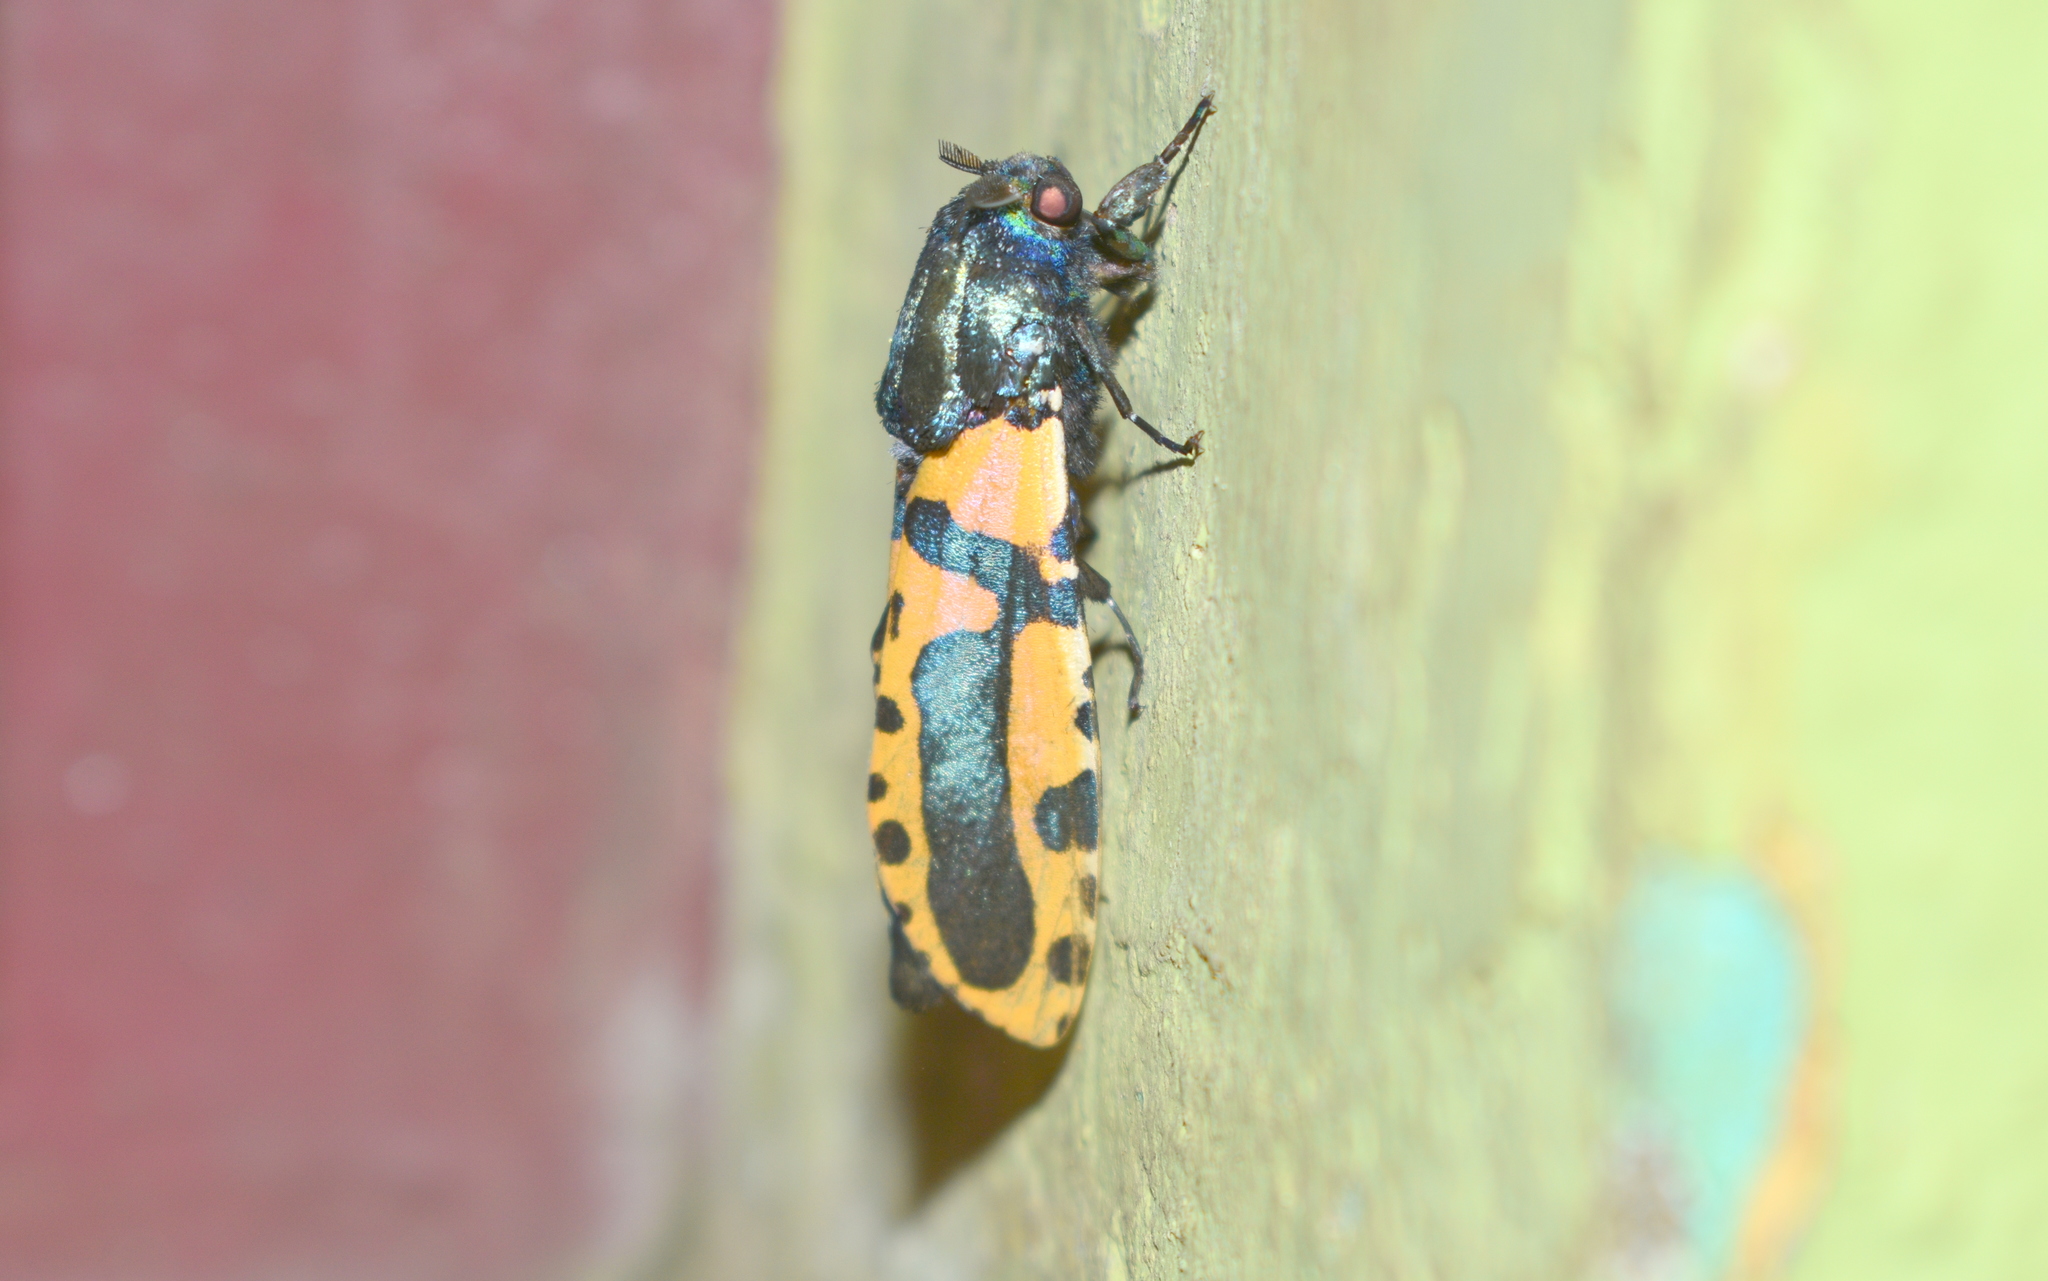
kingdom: Animalia
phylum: Arthropoda
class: Insecta
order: Lepidoptera
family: Cossidae
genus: Chalcidica
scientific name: Chalcidica minea
